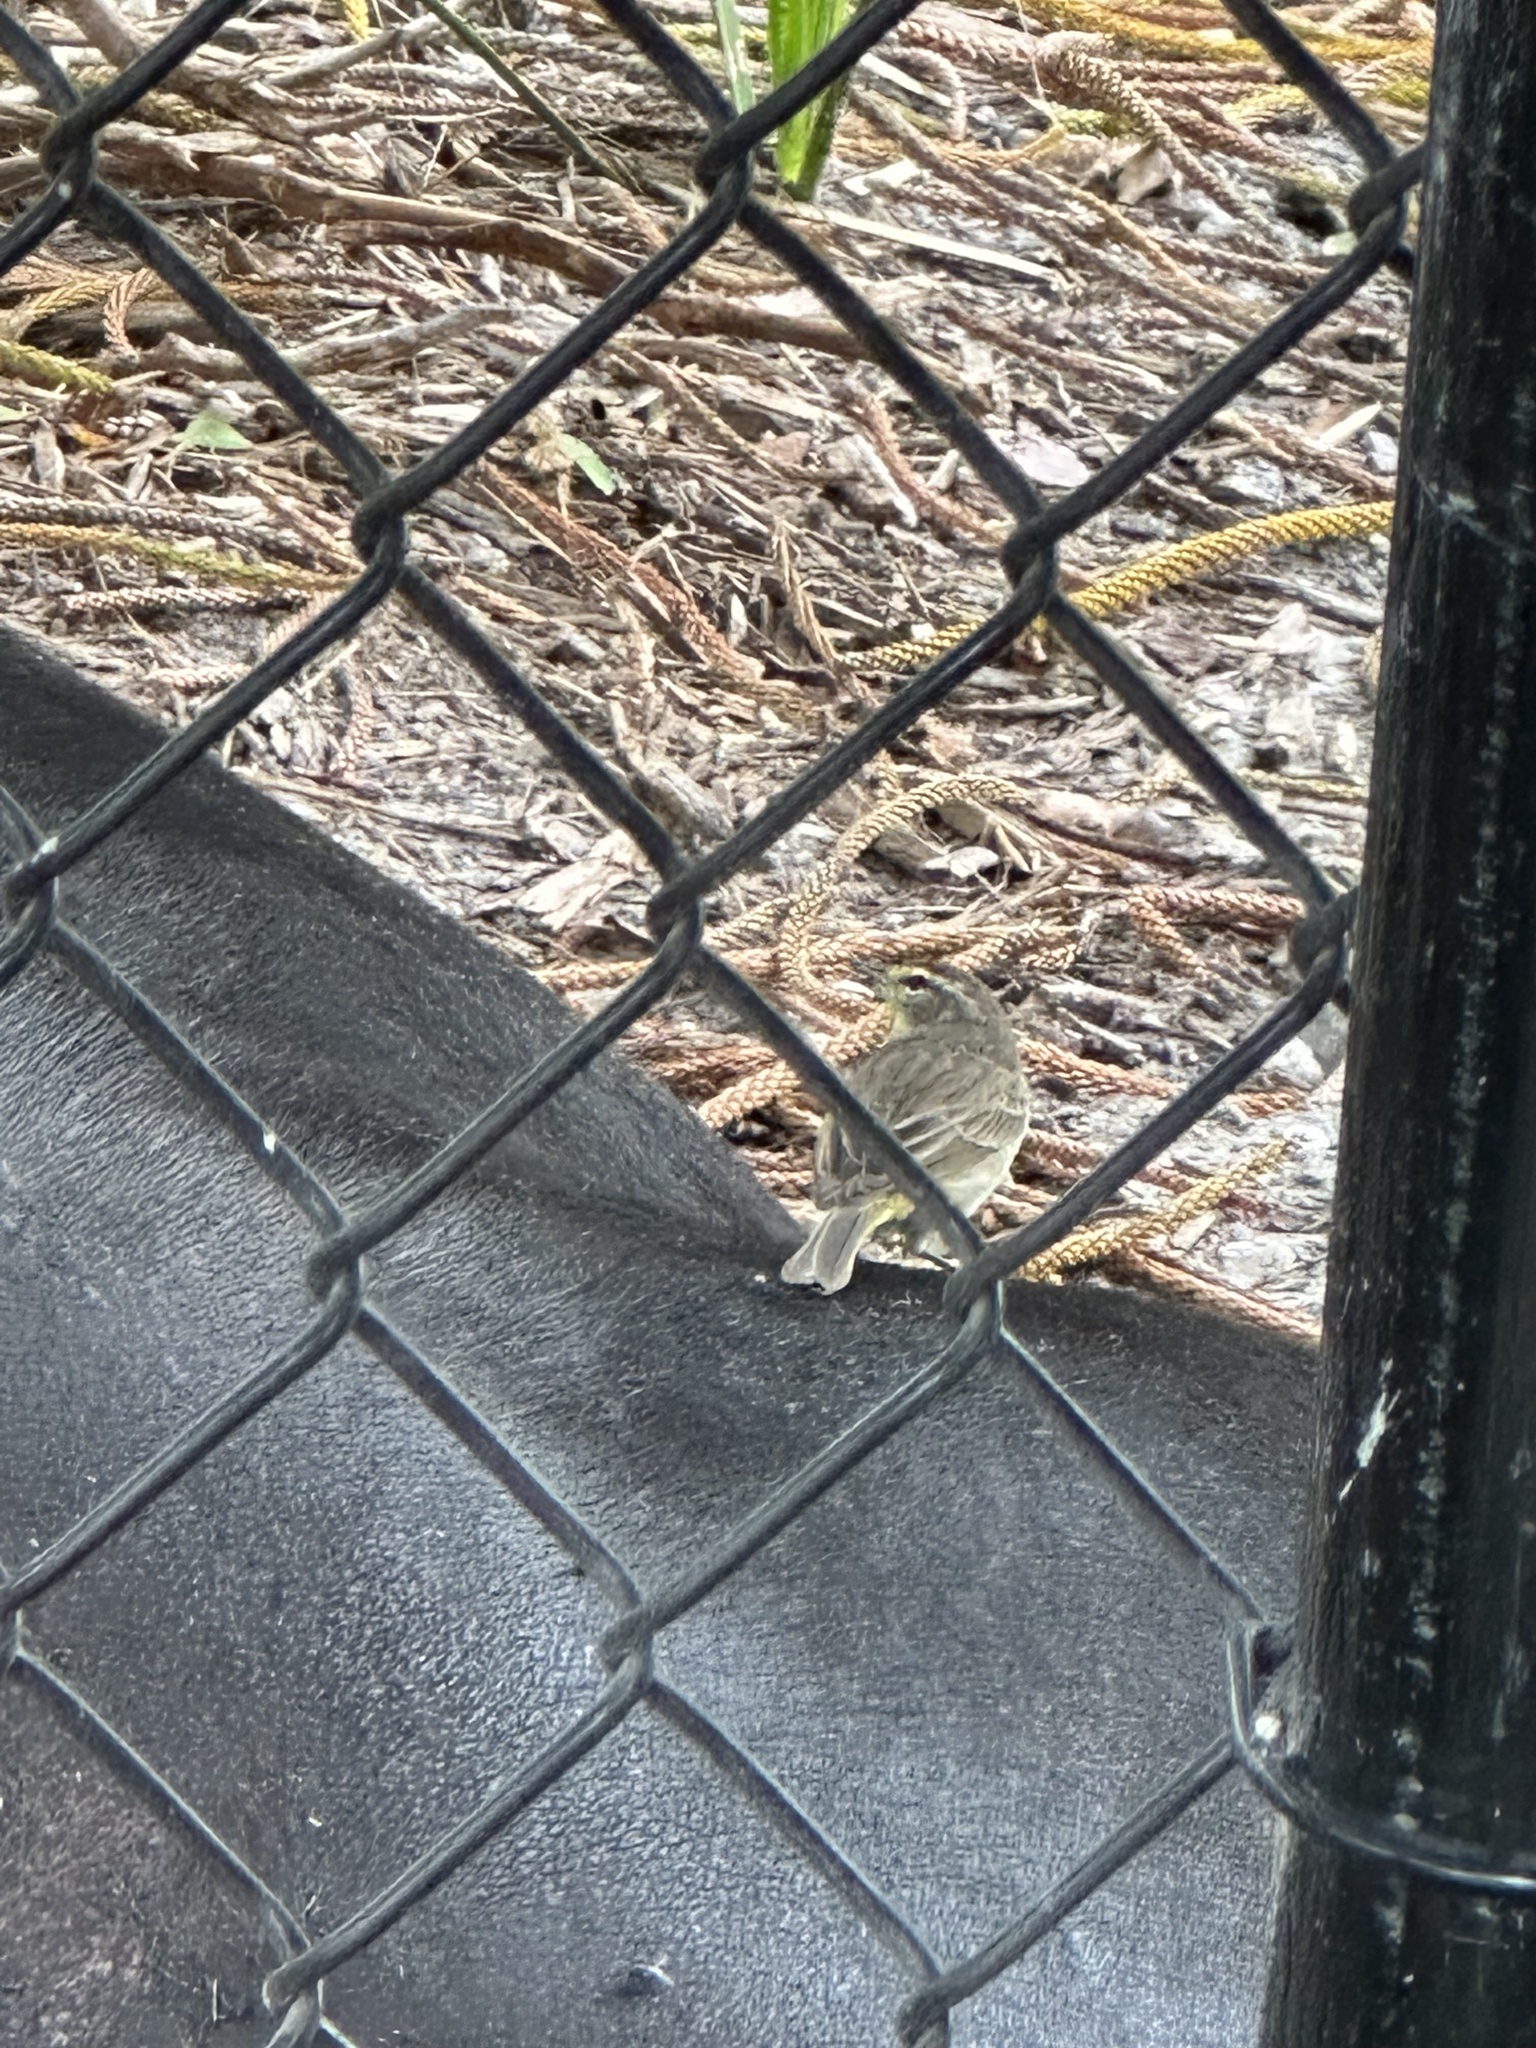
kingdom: Animalia
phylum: Chordata
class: Aves
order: Passeriformes
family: Parulidae
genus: Setophaga
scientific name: Setophaga palmarum
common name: Palm warbler
